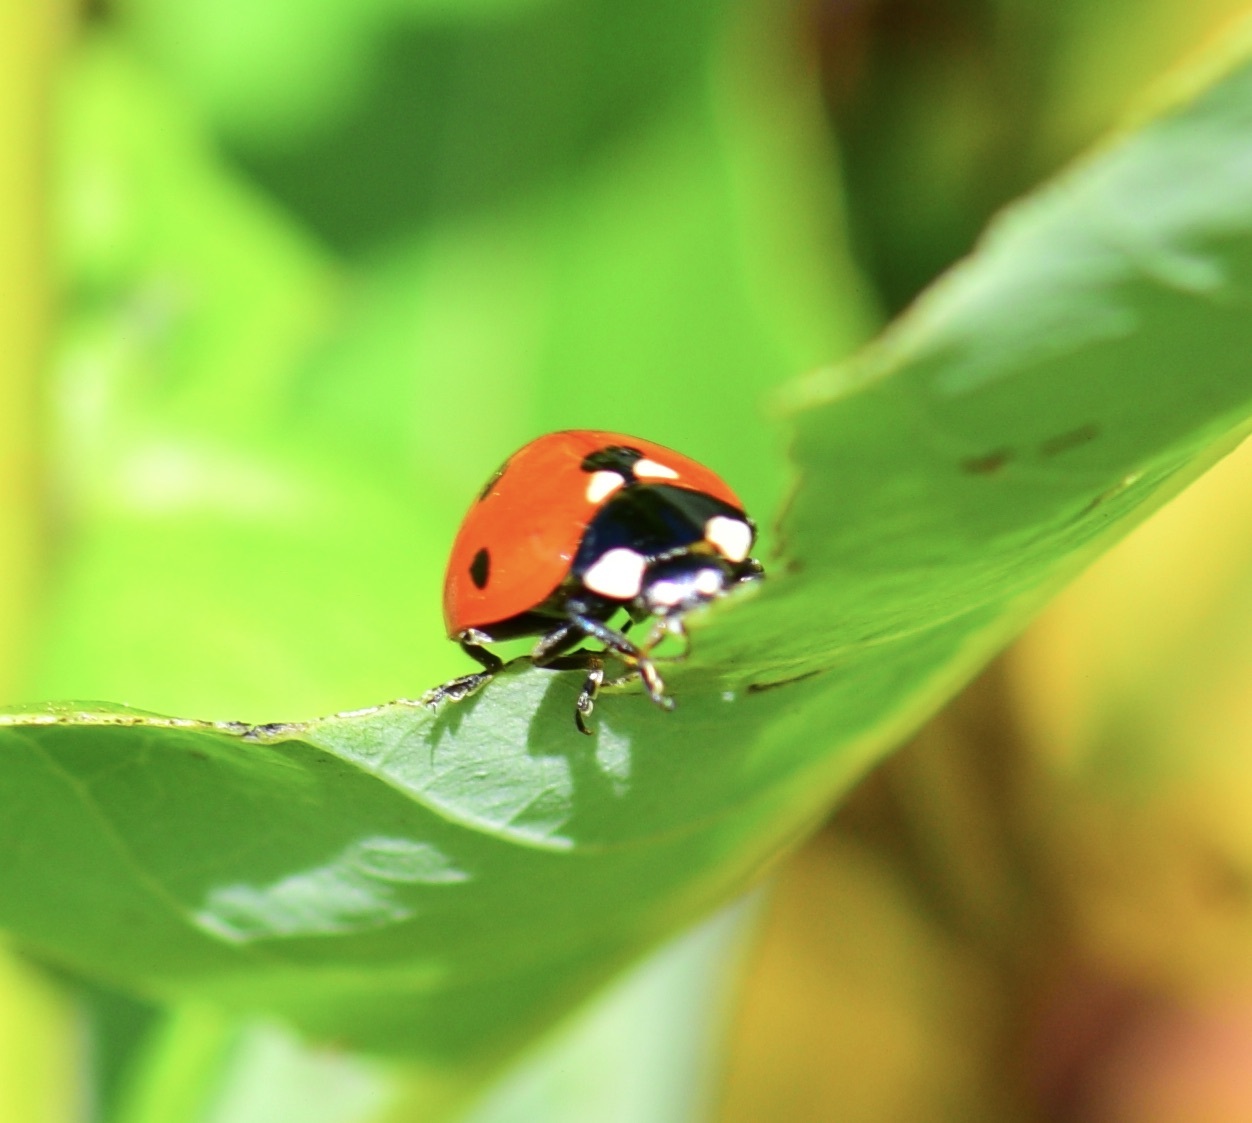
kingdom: Animalia
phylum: Arthropoda
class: Insecta
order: Coleoptera
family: Coccinellidae
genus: Coccinella
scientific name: Coccinella septempunctata
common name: Sevenspotted lady beetle
